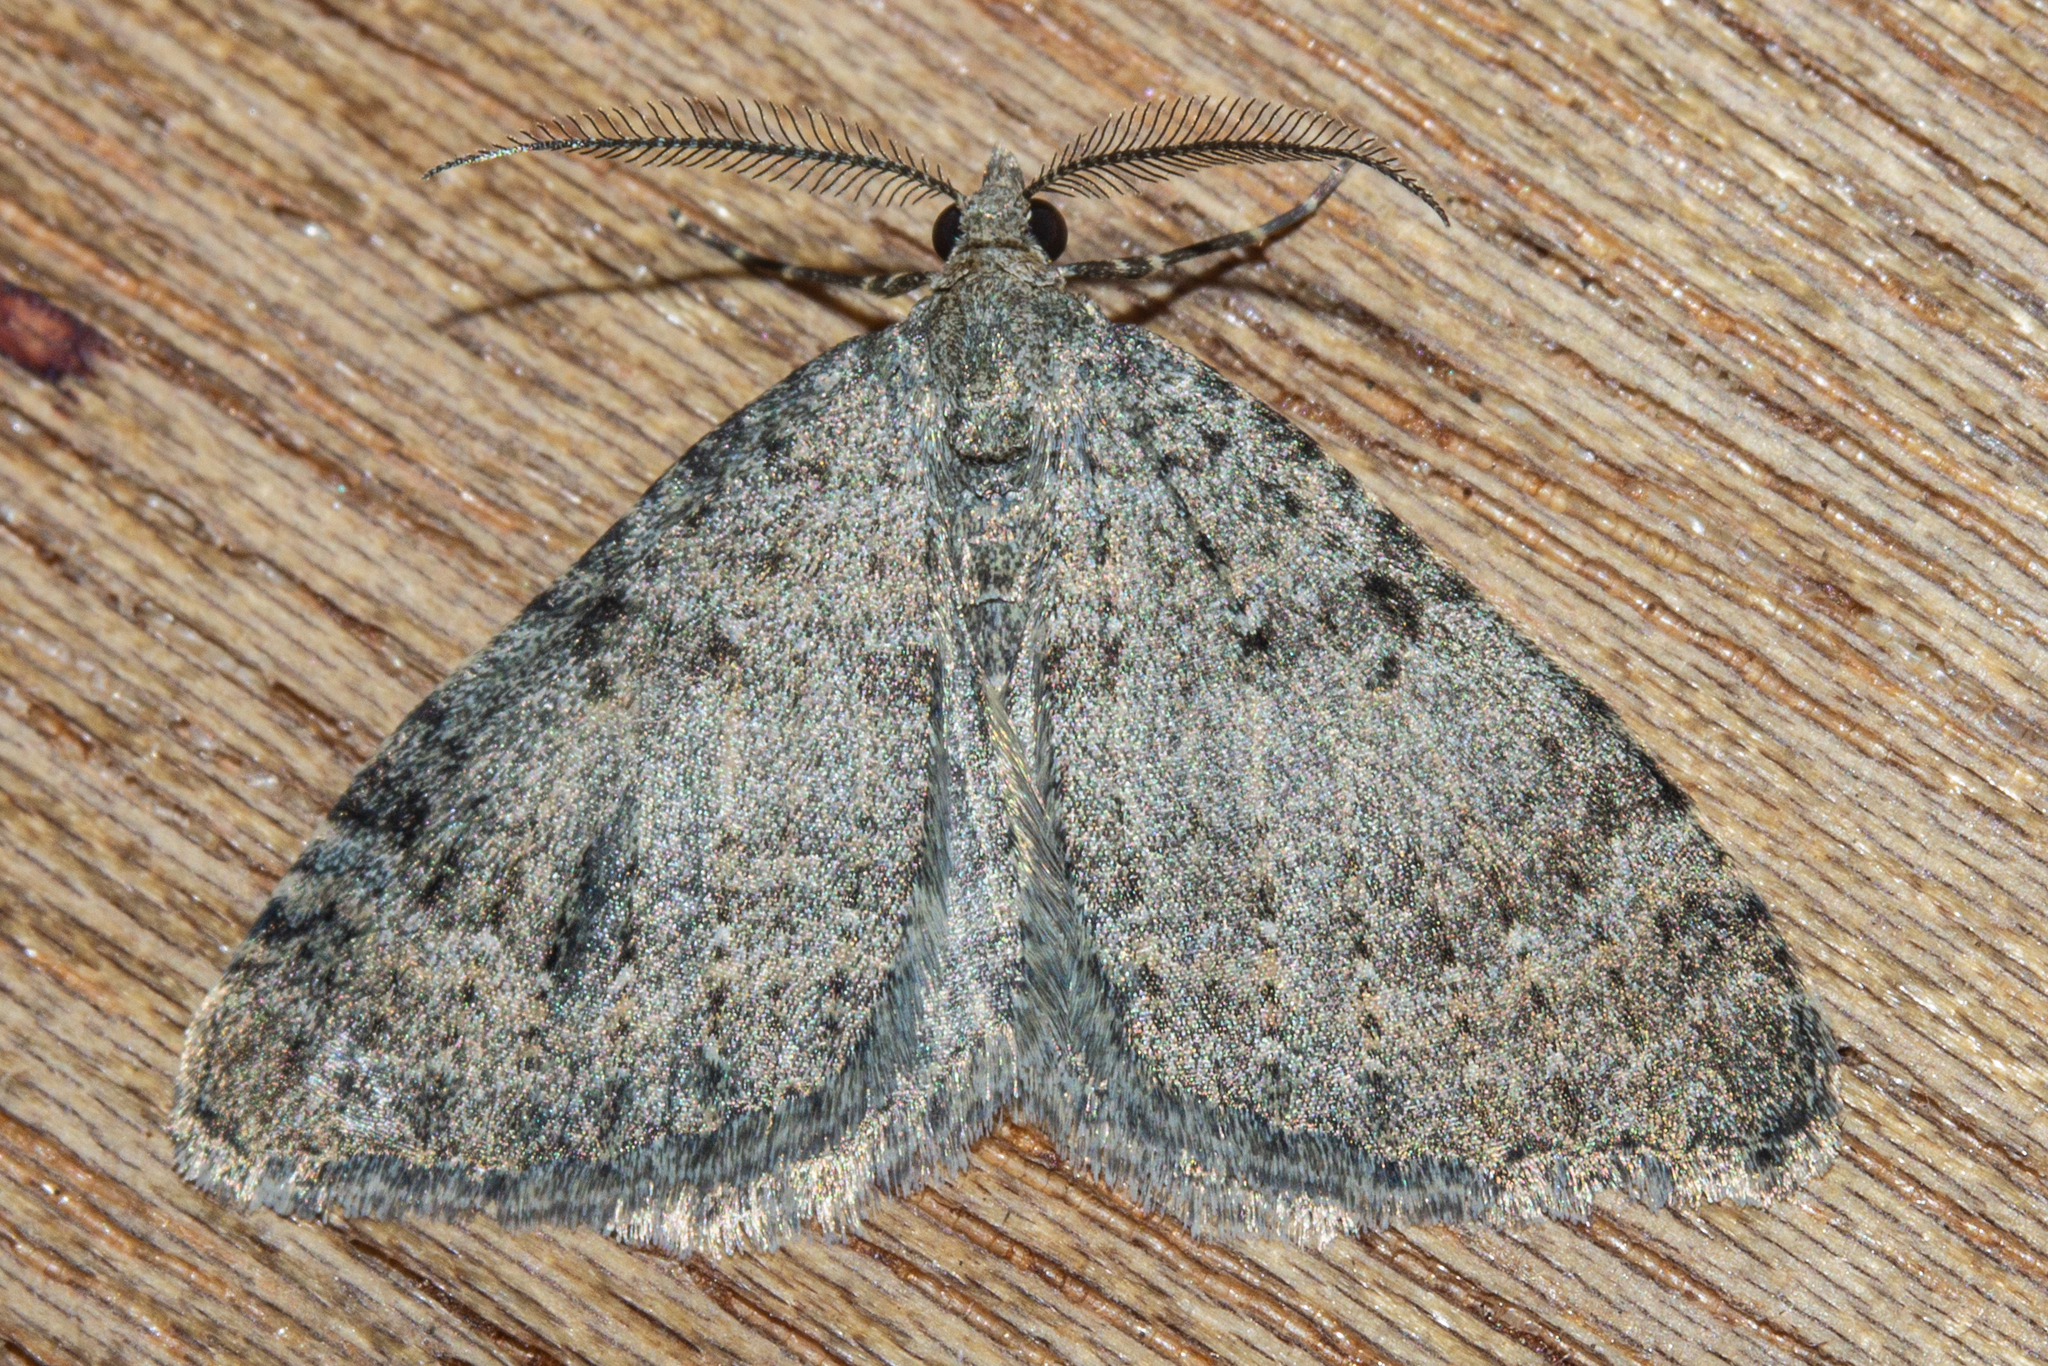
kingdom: Animalia
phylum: Arthropoda
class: Insecta
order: Lepidoptera
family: Geometridae
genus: Helastia
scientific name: Helastia corcularia
